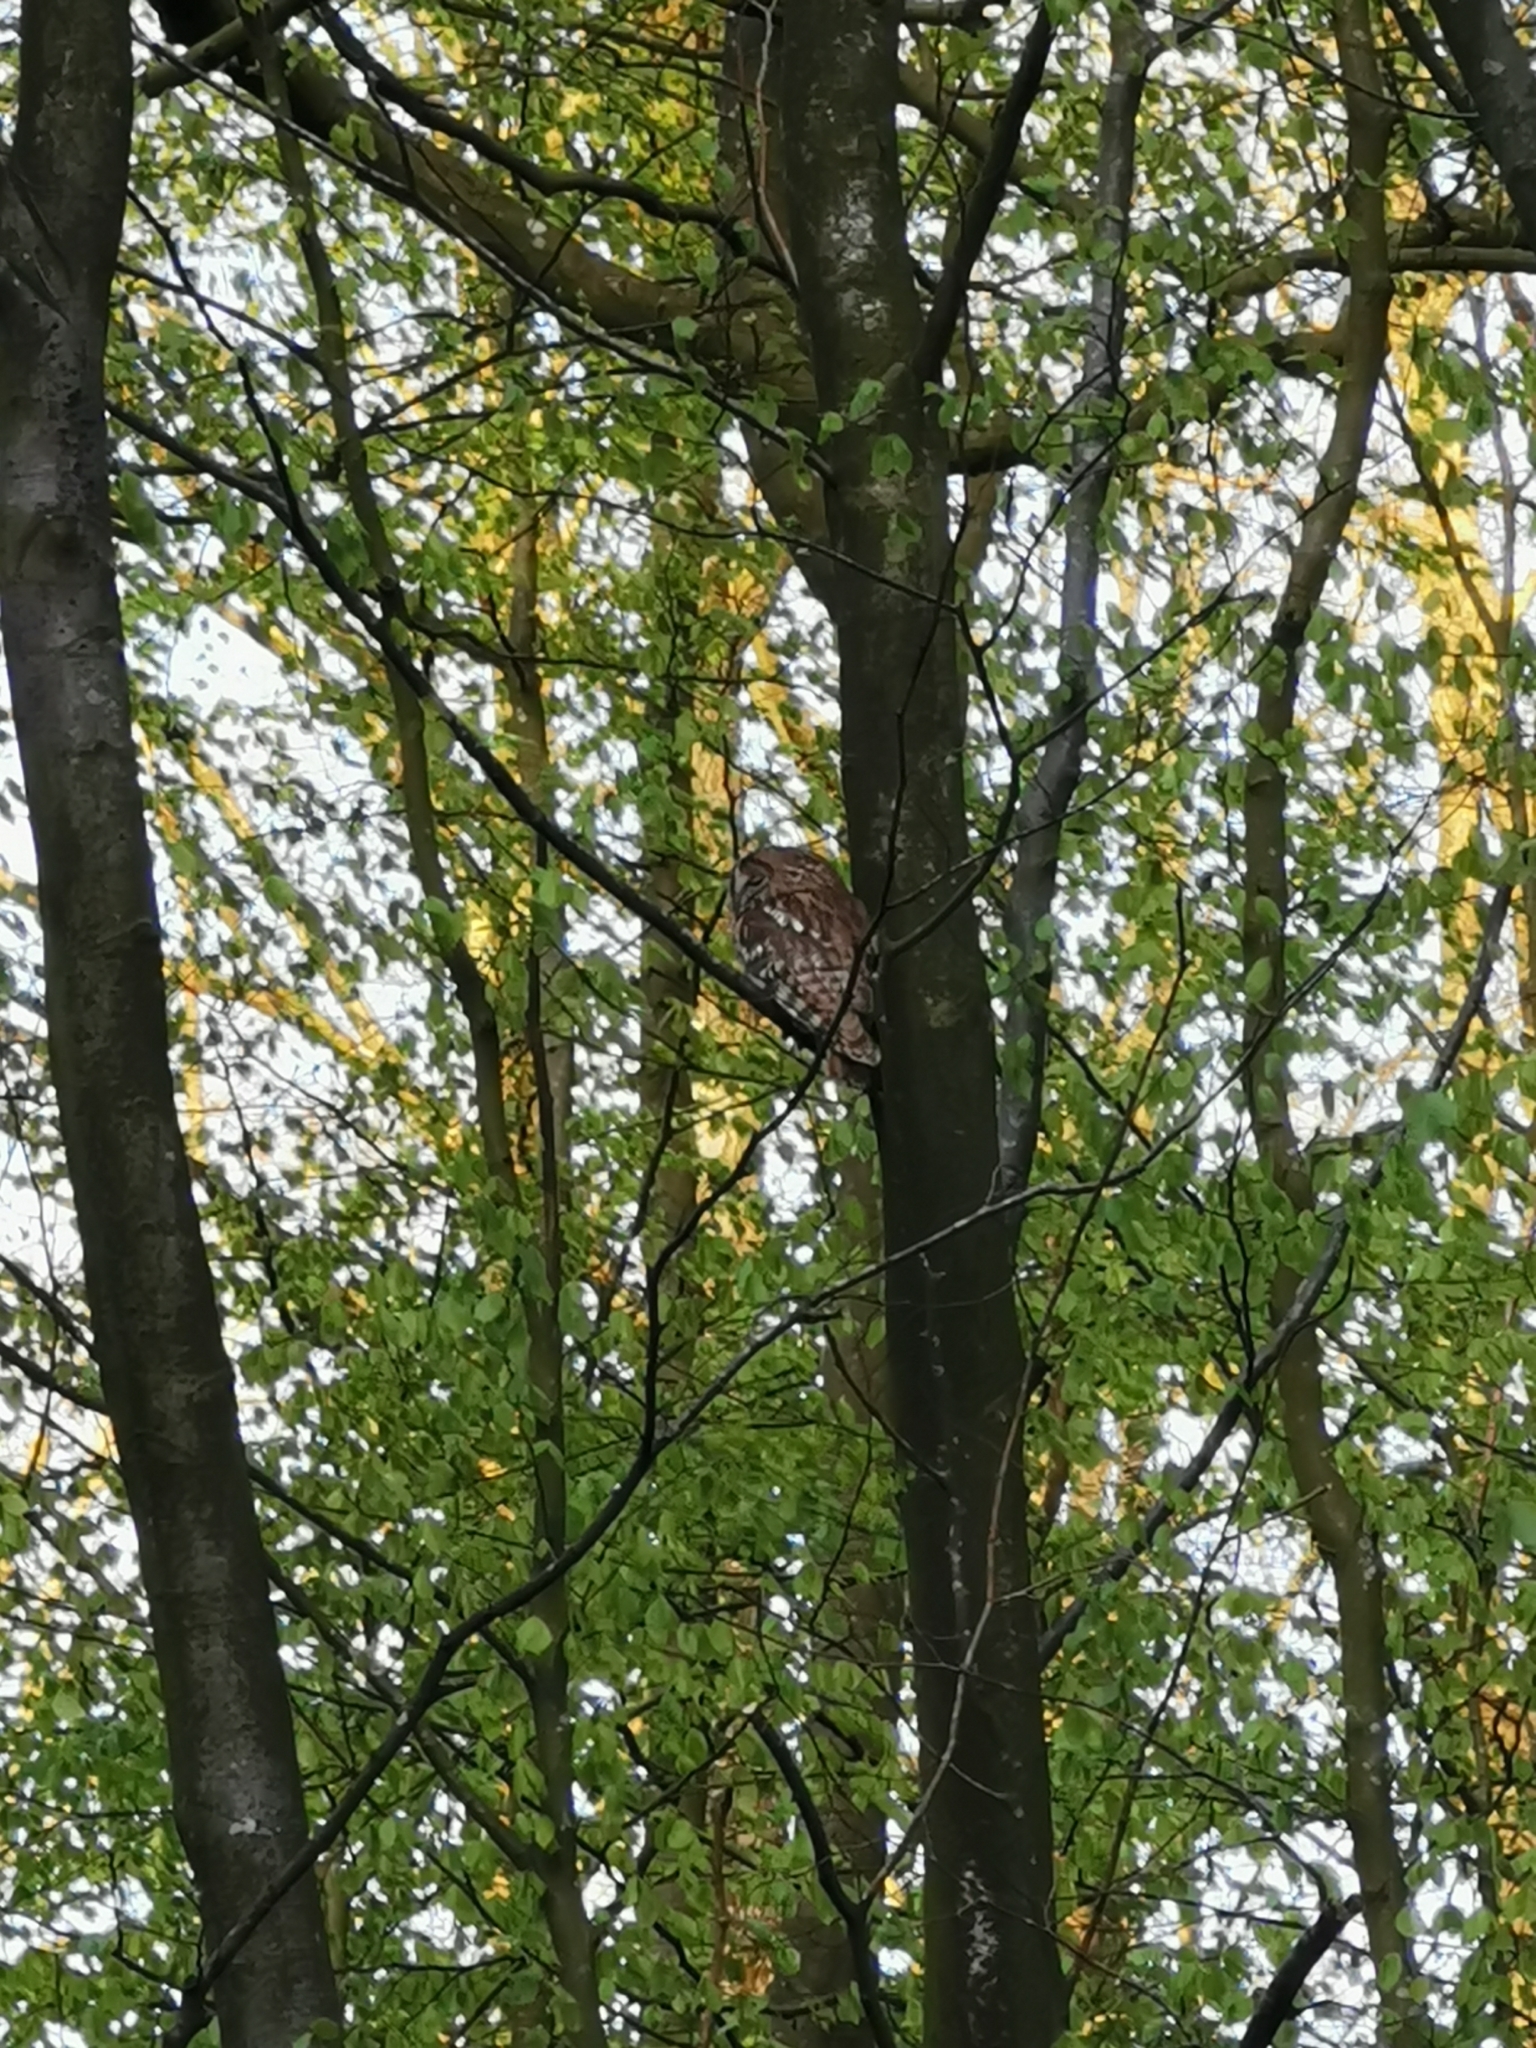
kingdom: Animalia
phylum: Chordata
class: Aves
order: Strigiformes
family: Strigidae
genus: Strix
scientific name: Strix aluco
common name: Tawny owl
